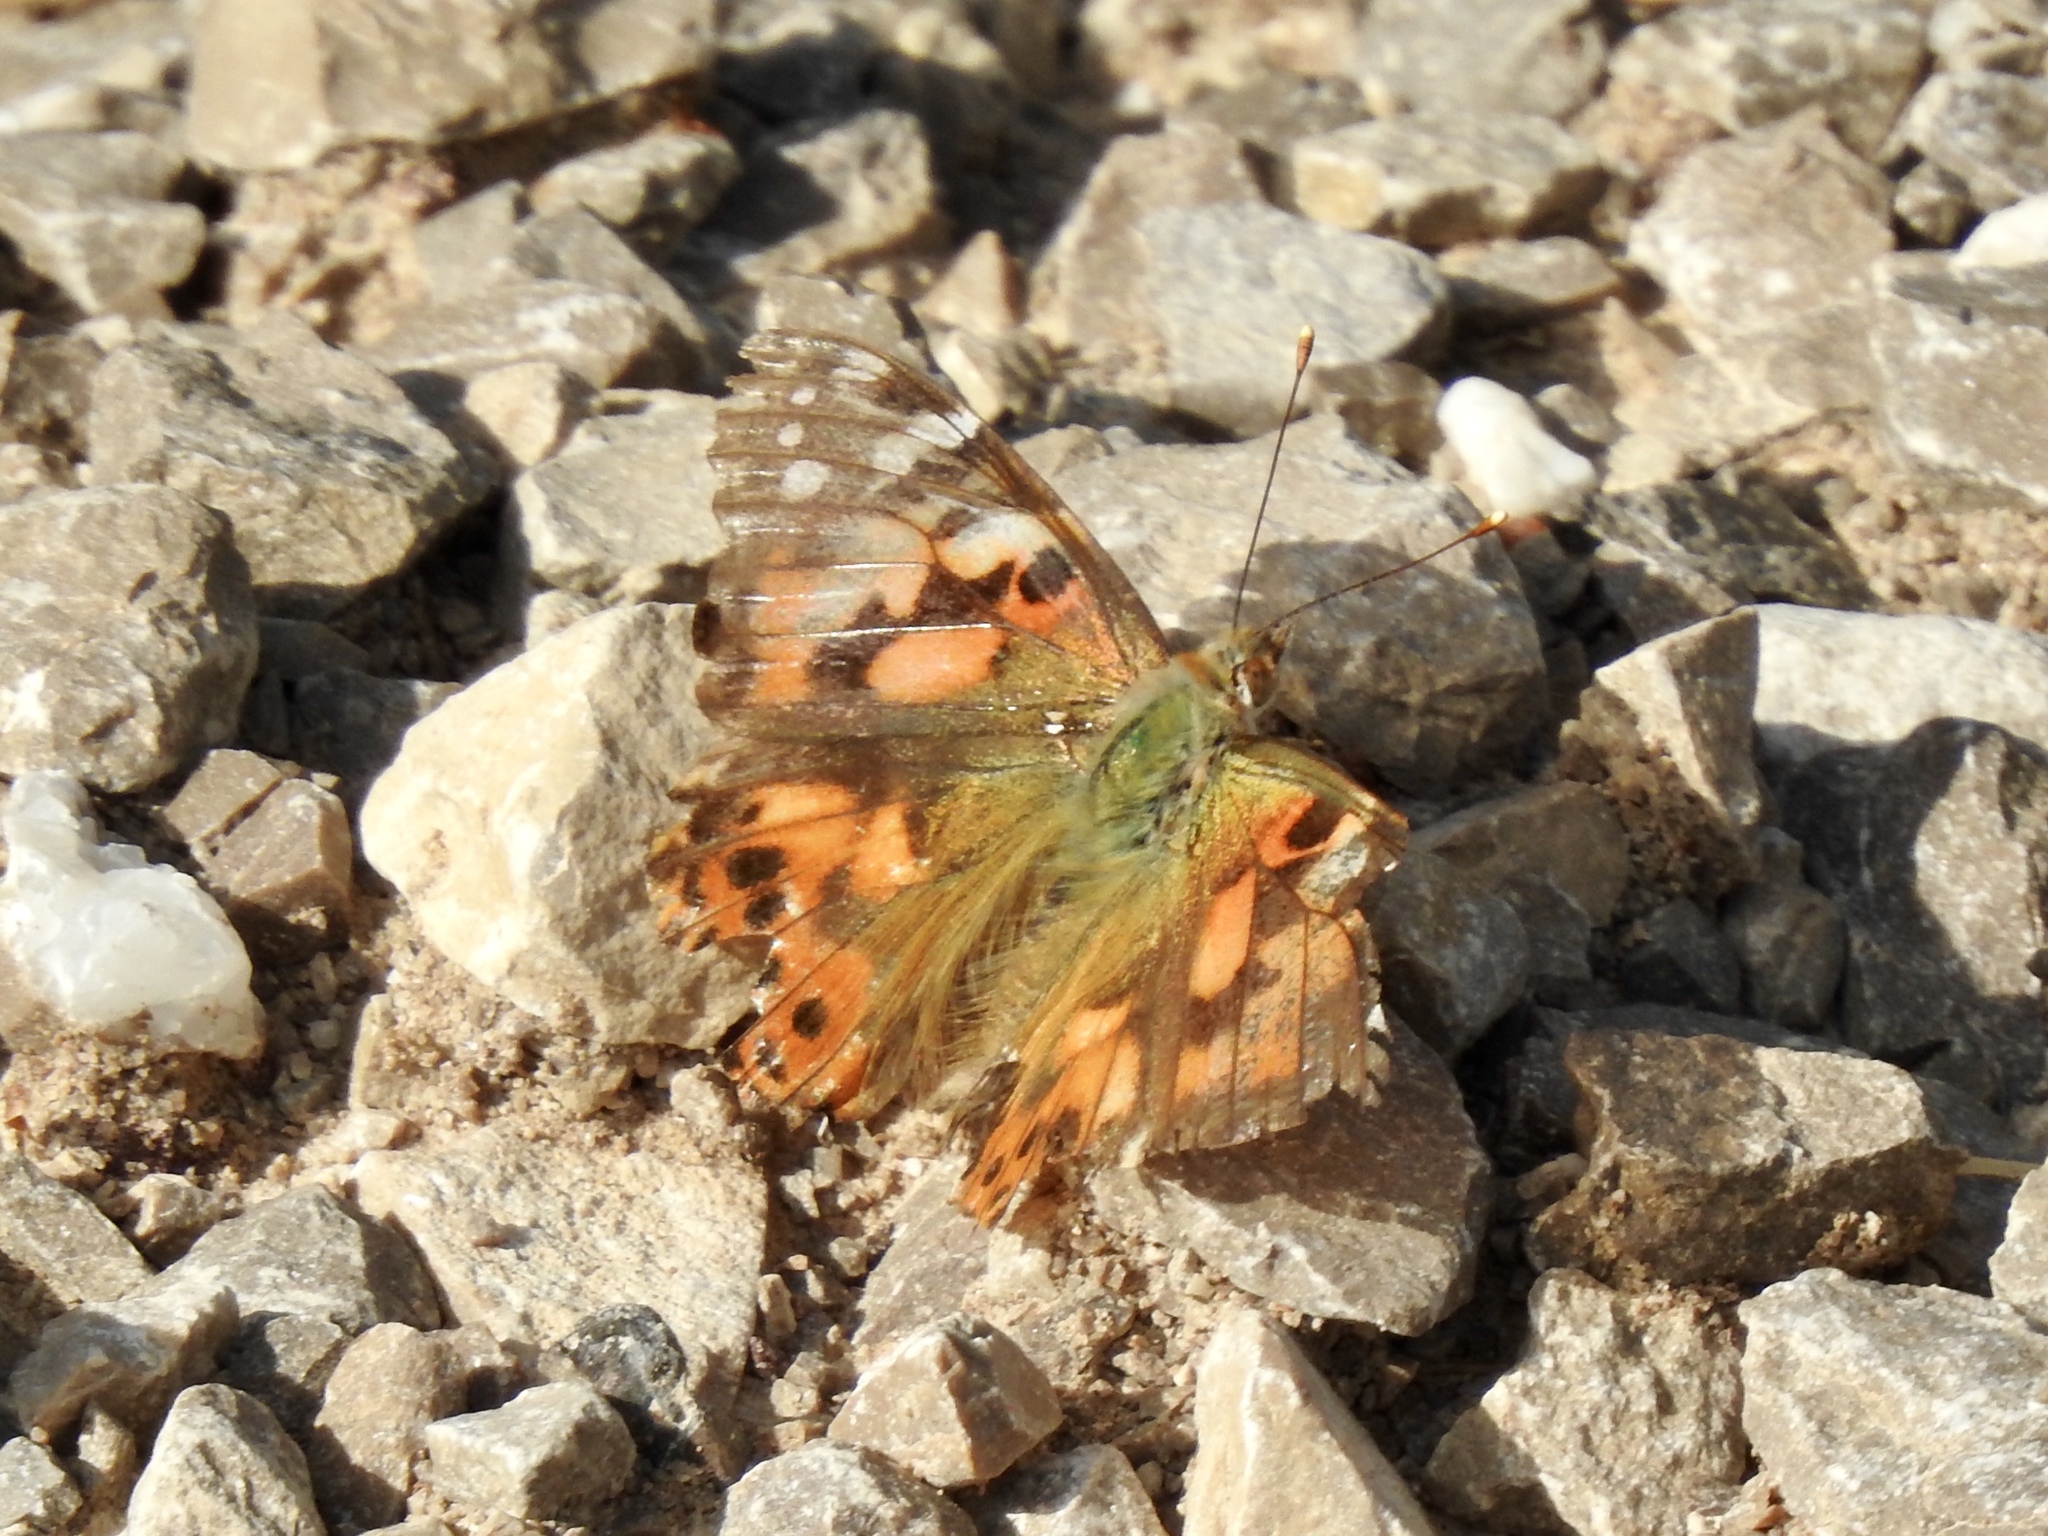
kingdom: Animalia
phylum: Arthropoda
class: Insecta
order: Lepidoptera
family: Nymphalidae
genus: Vanessa
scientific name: Vanessa cardui
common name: Painted lady
